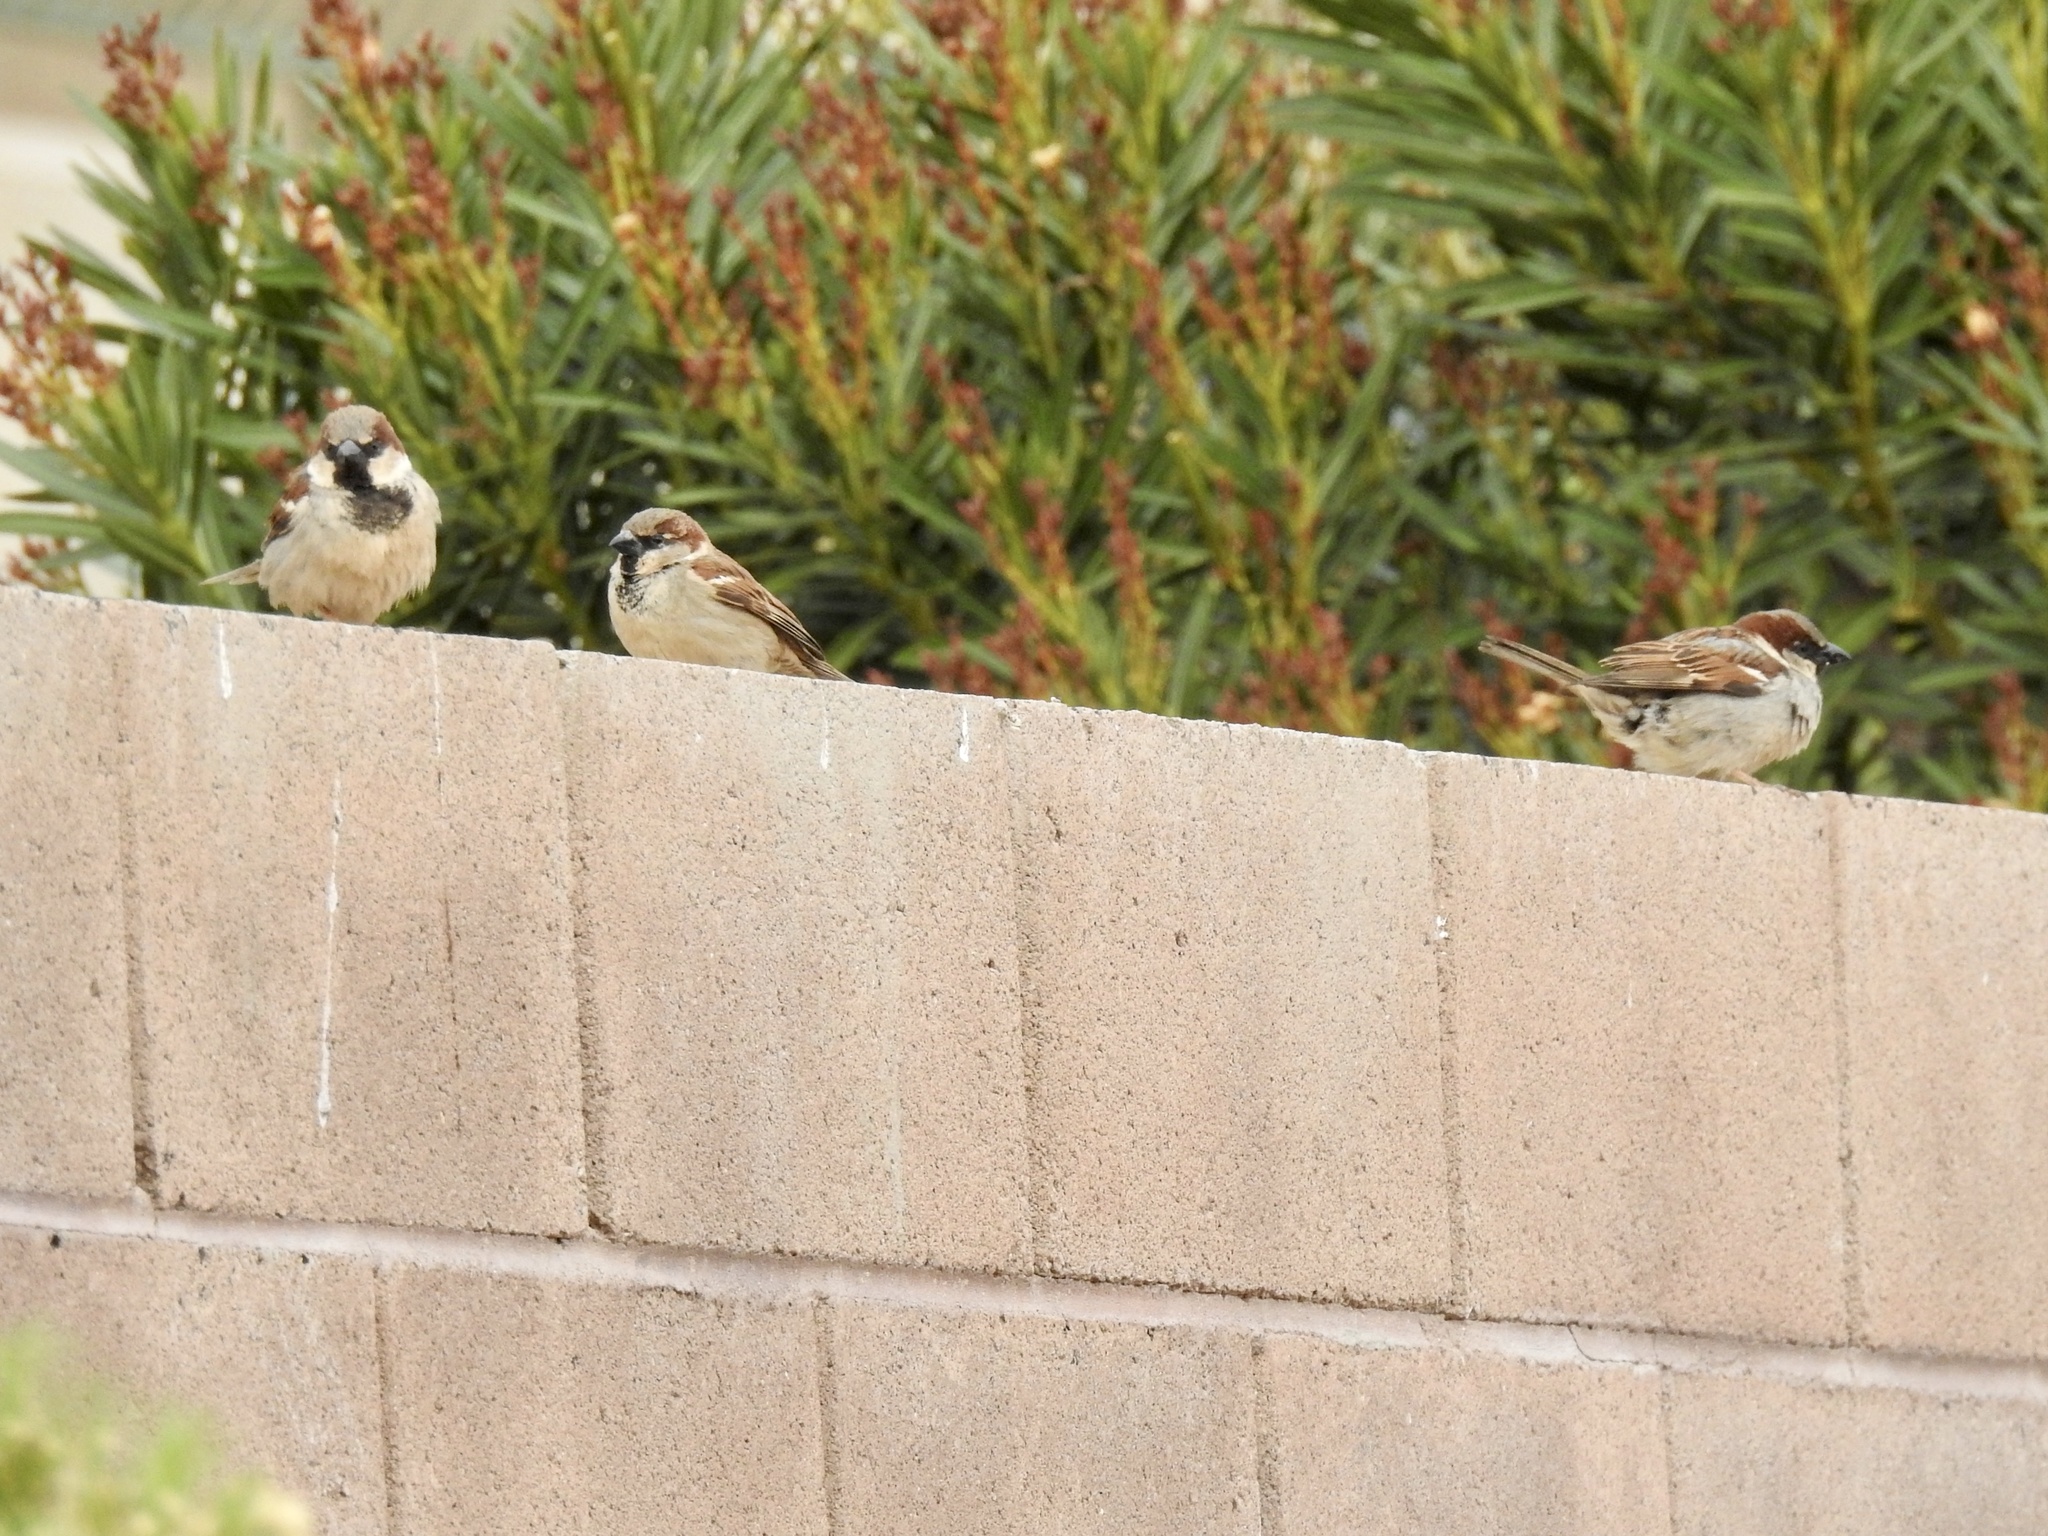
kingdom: Animalia
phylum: Chordata
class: Aves
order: Passeriformes
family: Passeridae
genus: Passer
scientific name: Passer domesticus
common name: House sparrow
